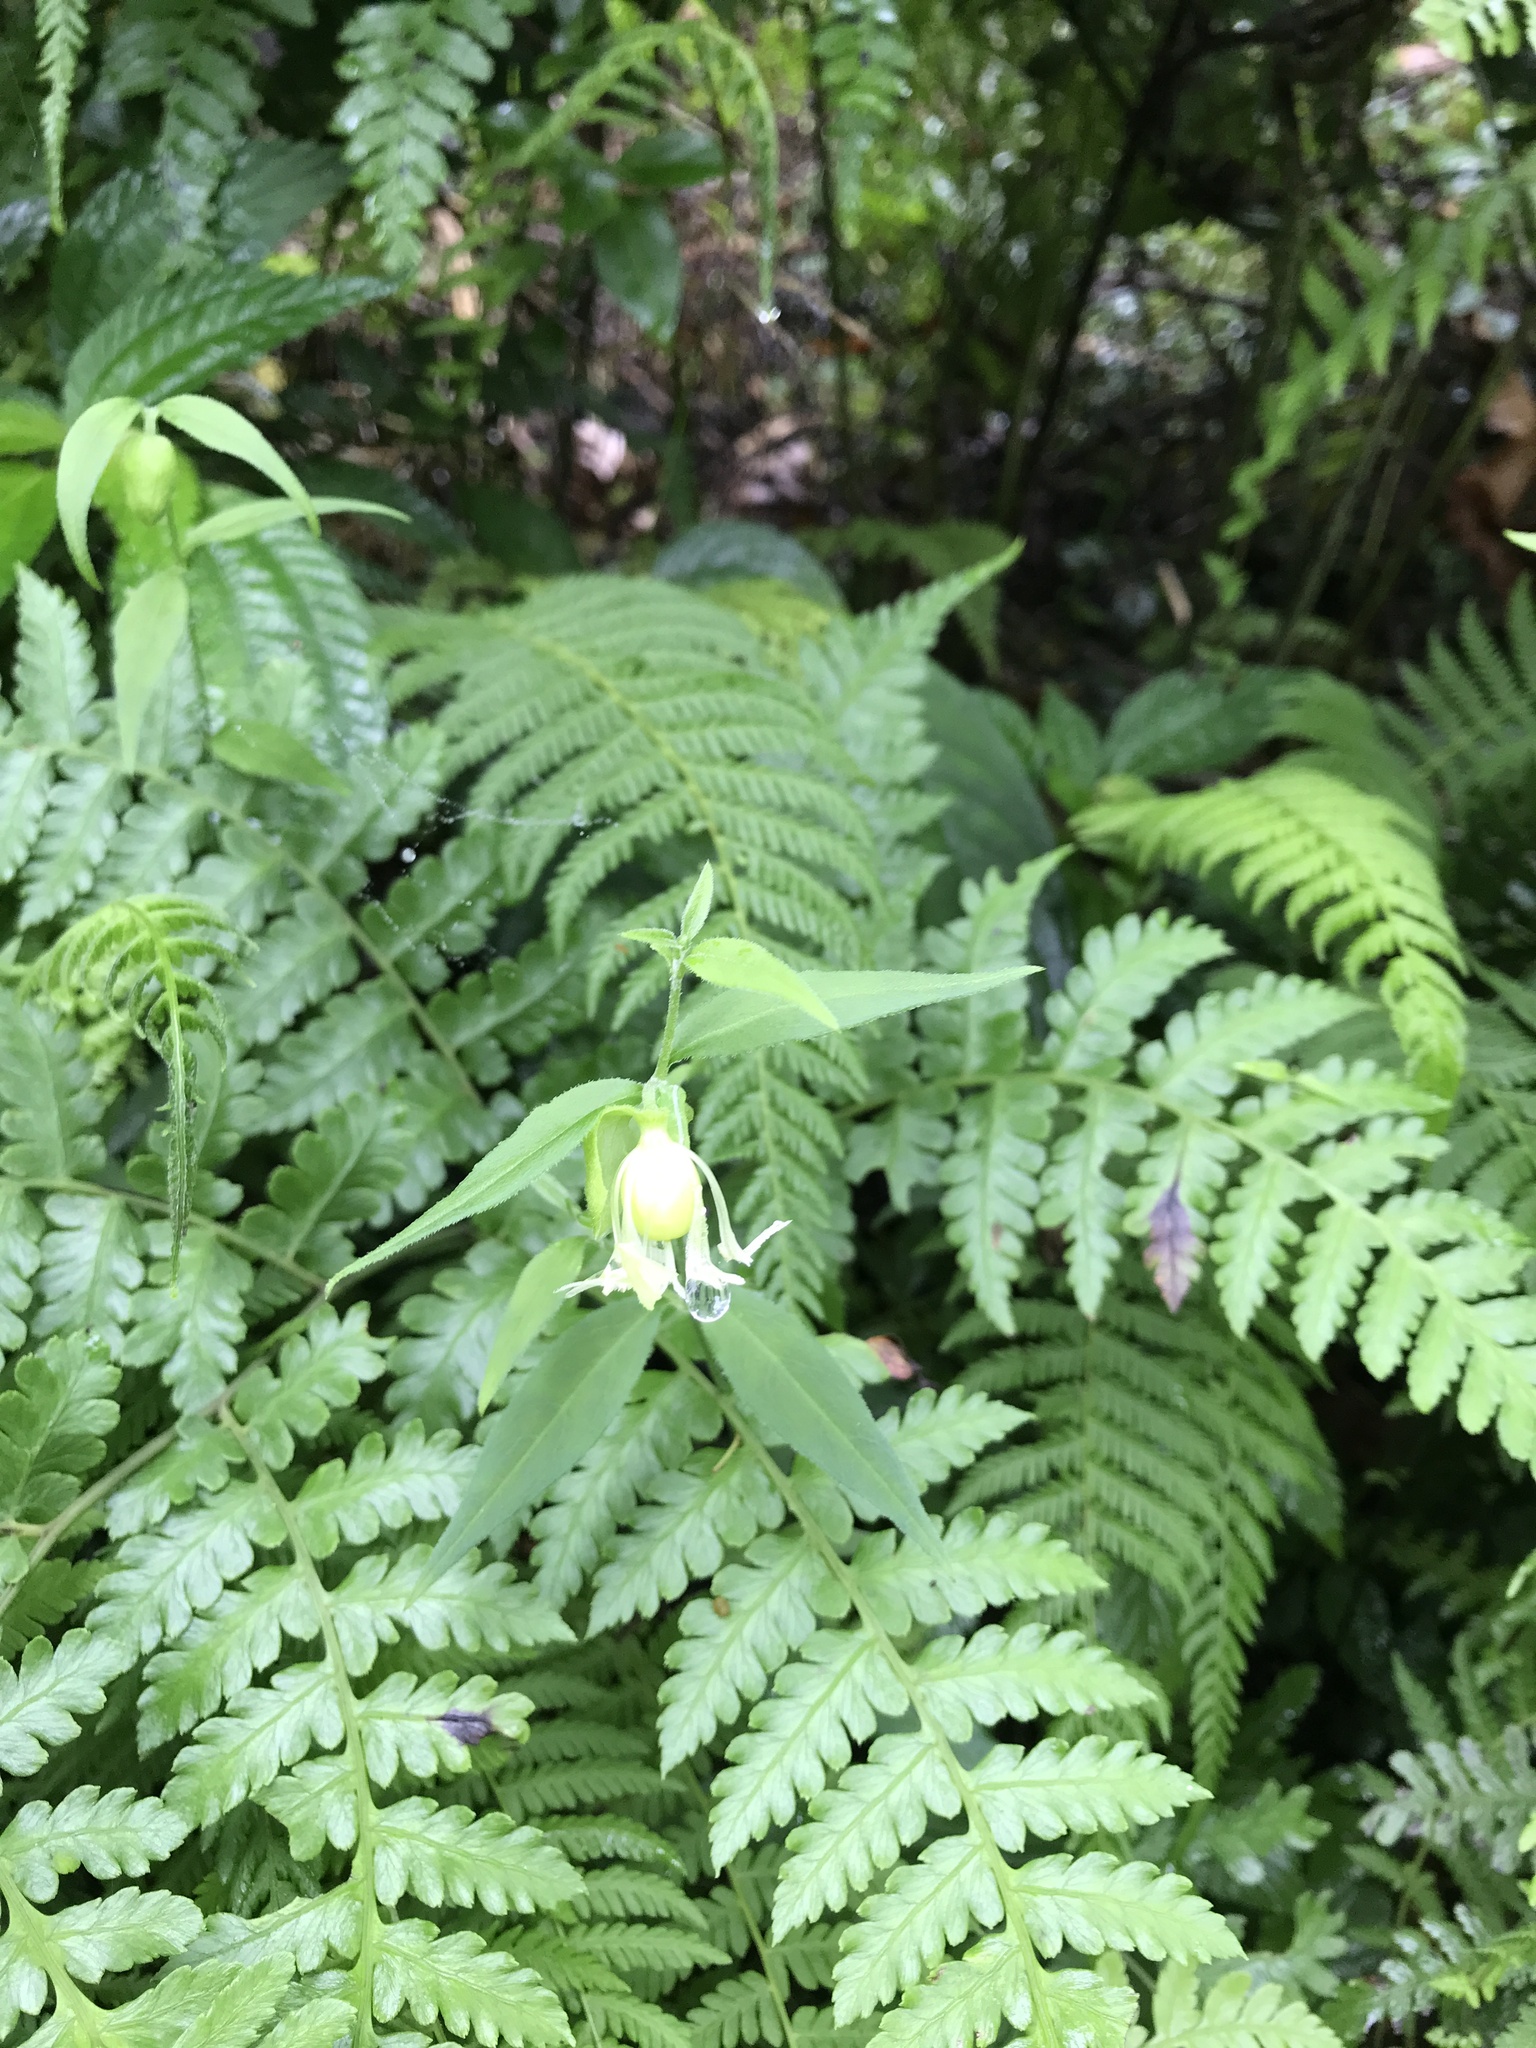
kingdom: Plantae
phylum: Tracheophyta
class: Magnoliopsida
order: Caryophyllales
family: Caryophyllaceae
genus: Silene
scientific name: Silene baccifera
